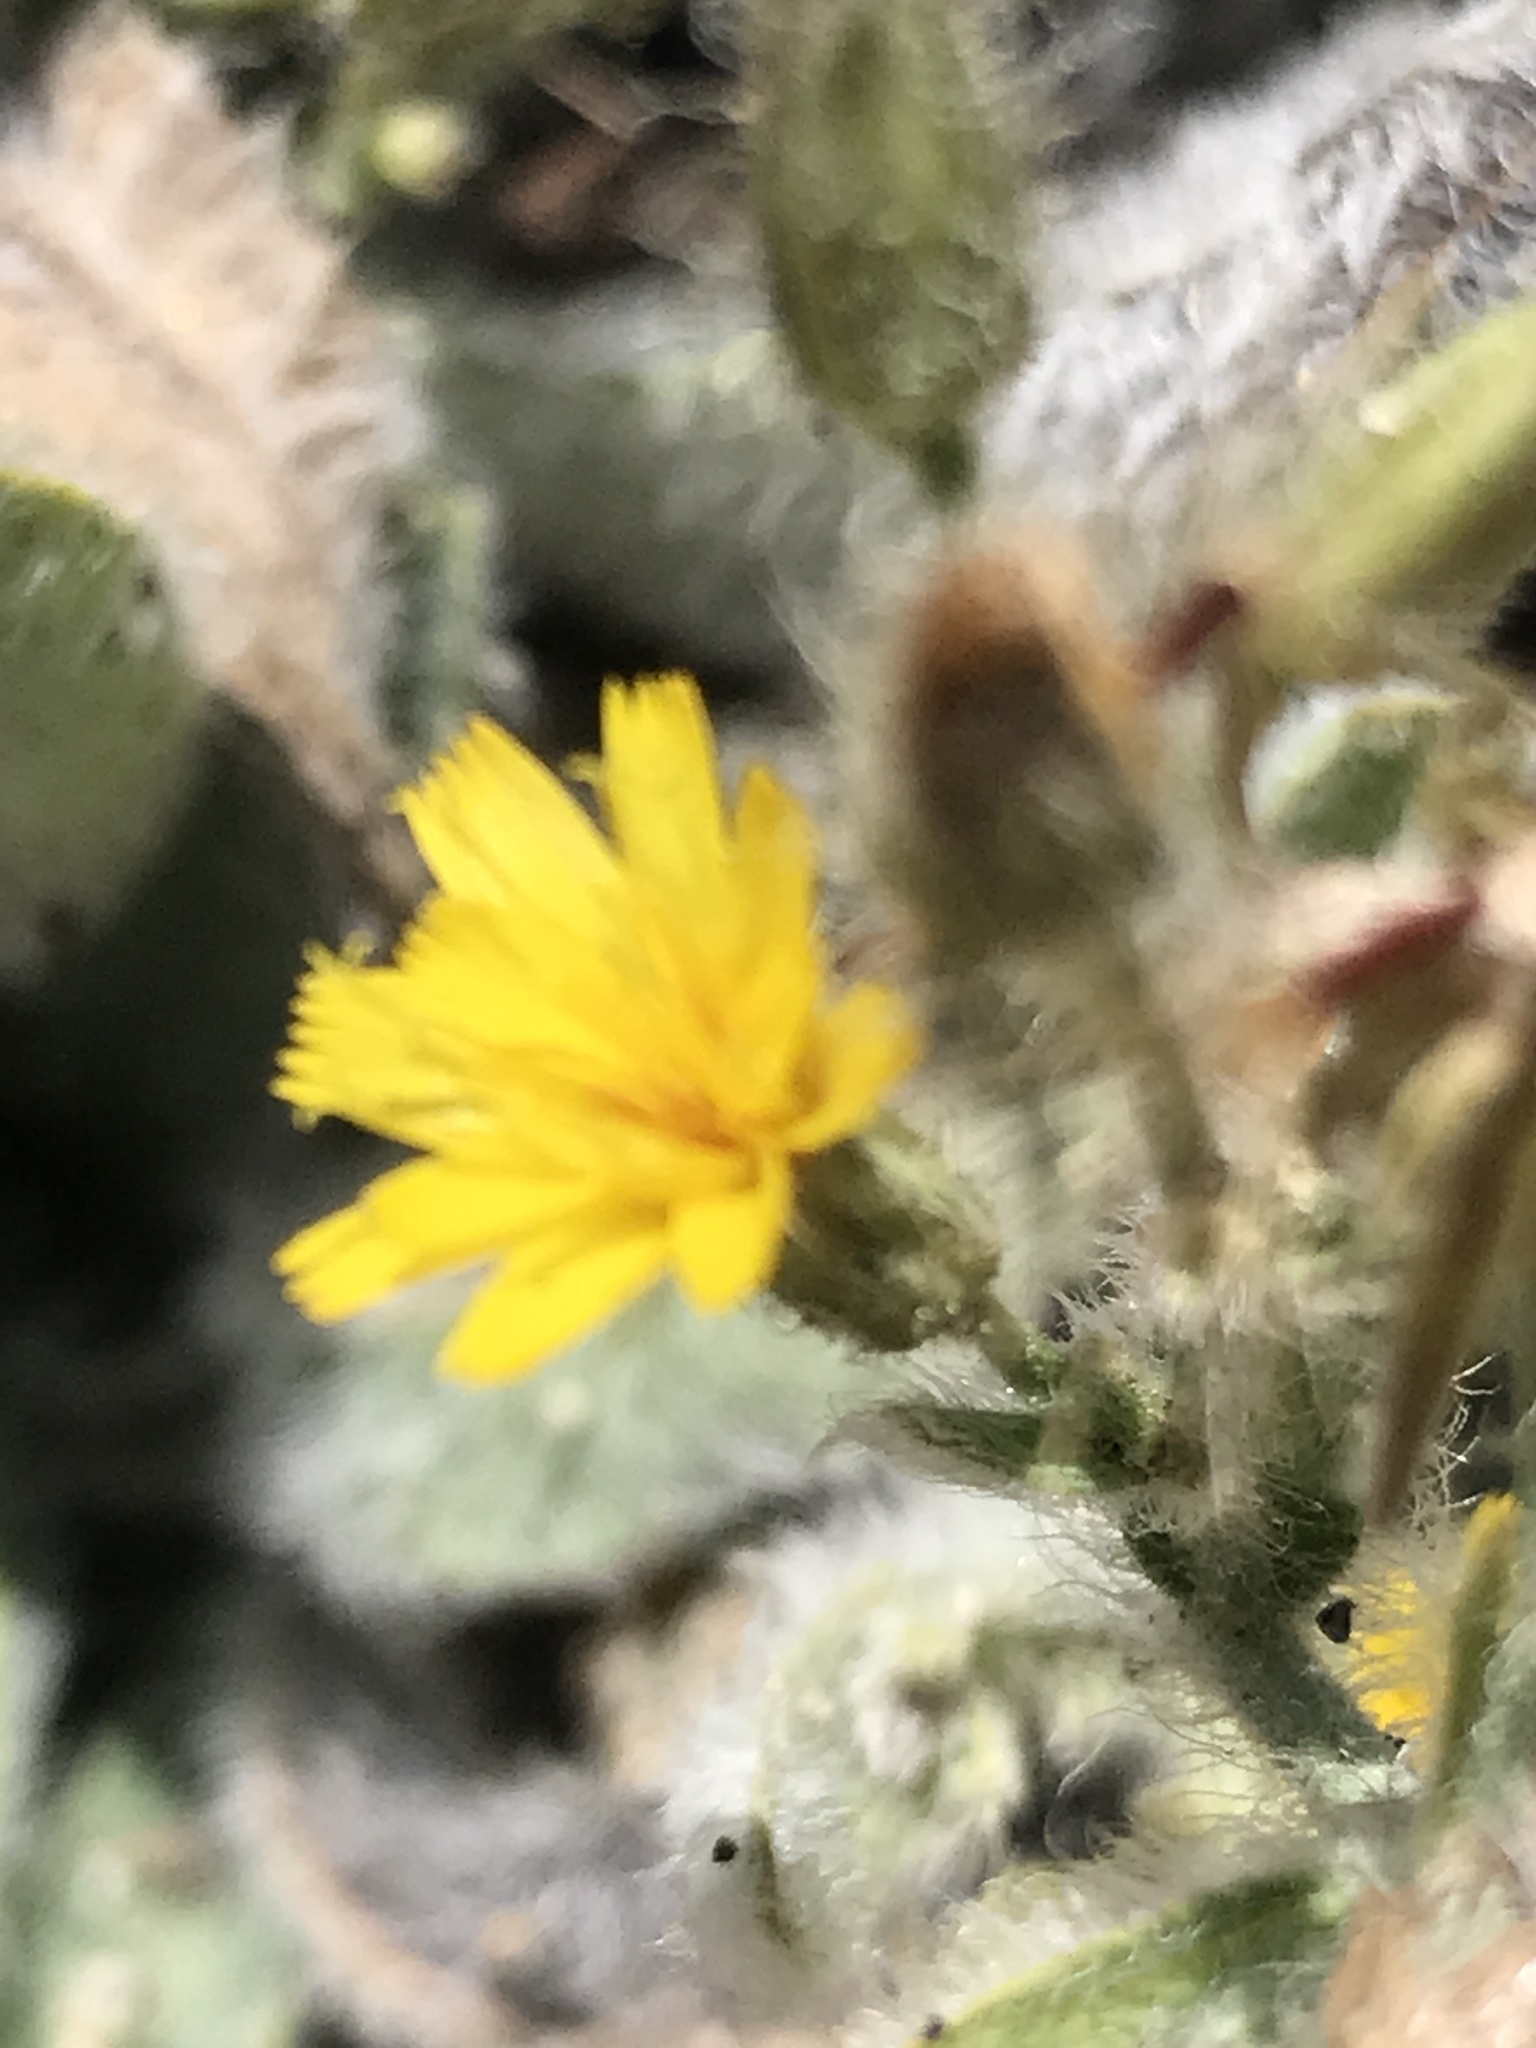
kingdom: Plantae
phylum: Tracheophyta
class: Magnoliopsida
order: Asterales
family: Asteraceae
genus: Hieracium
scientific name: Hieracium horridum
